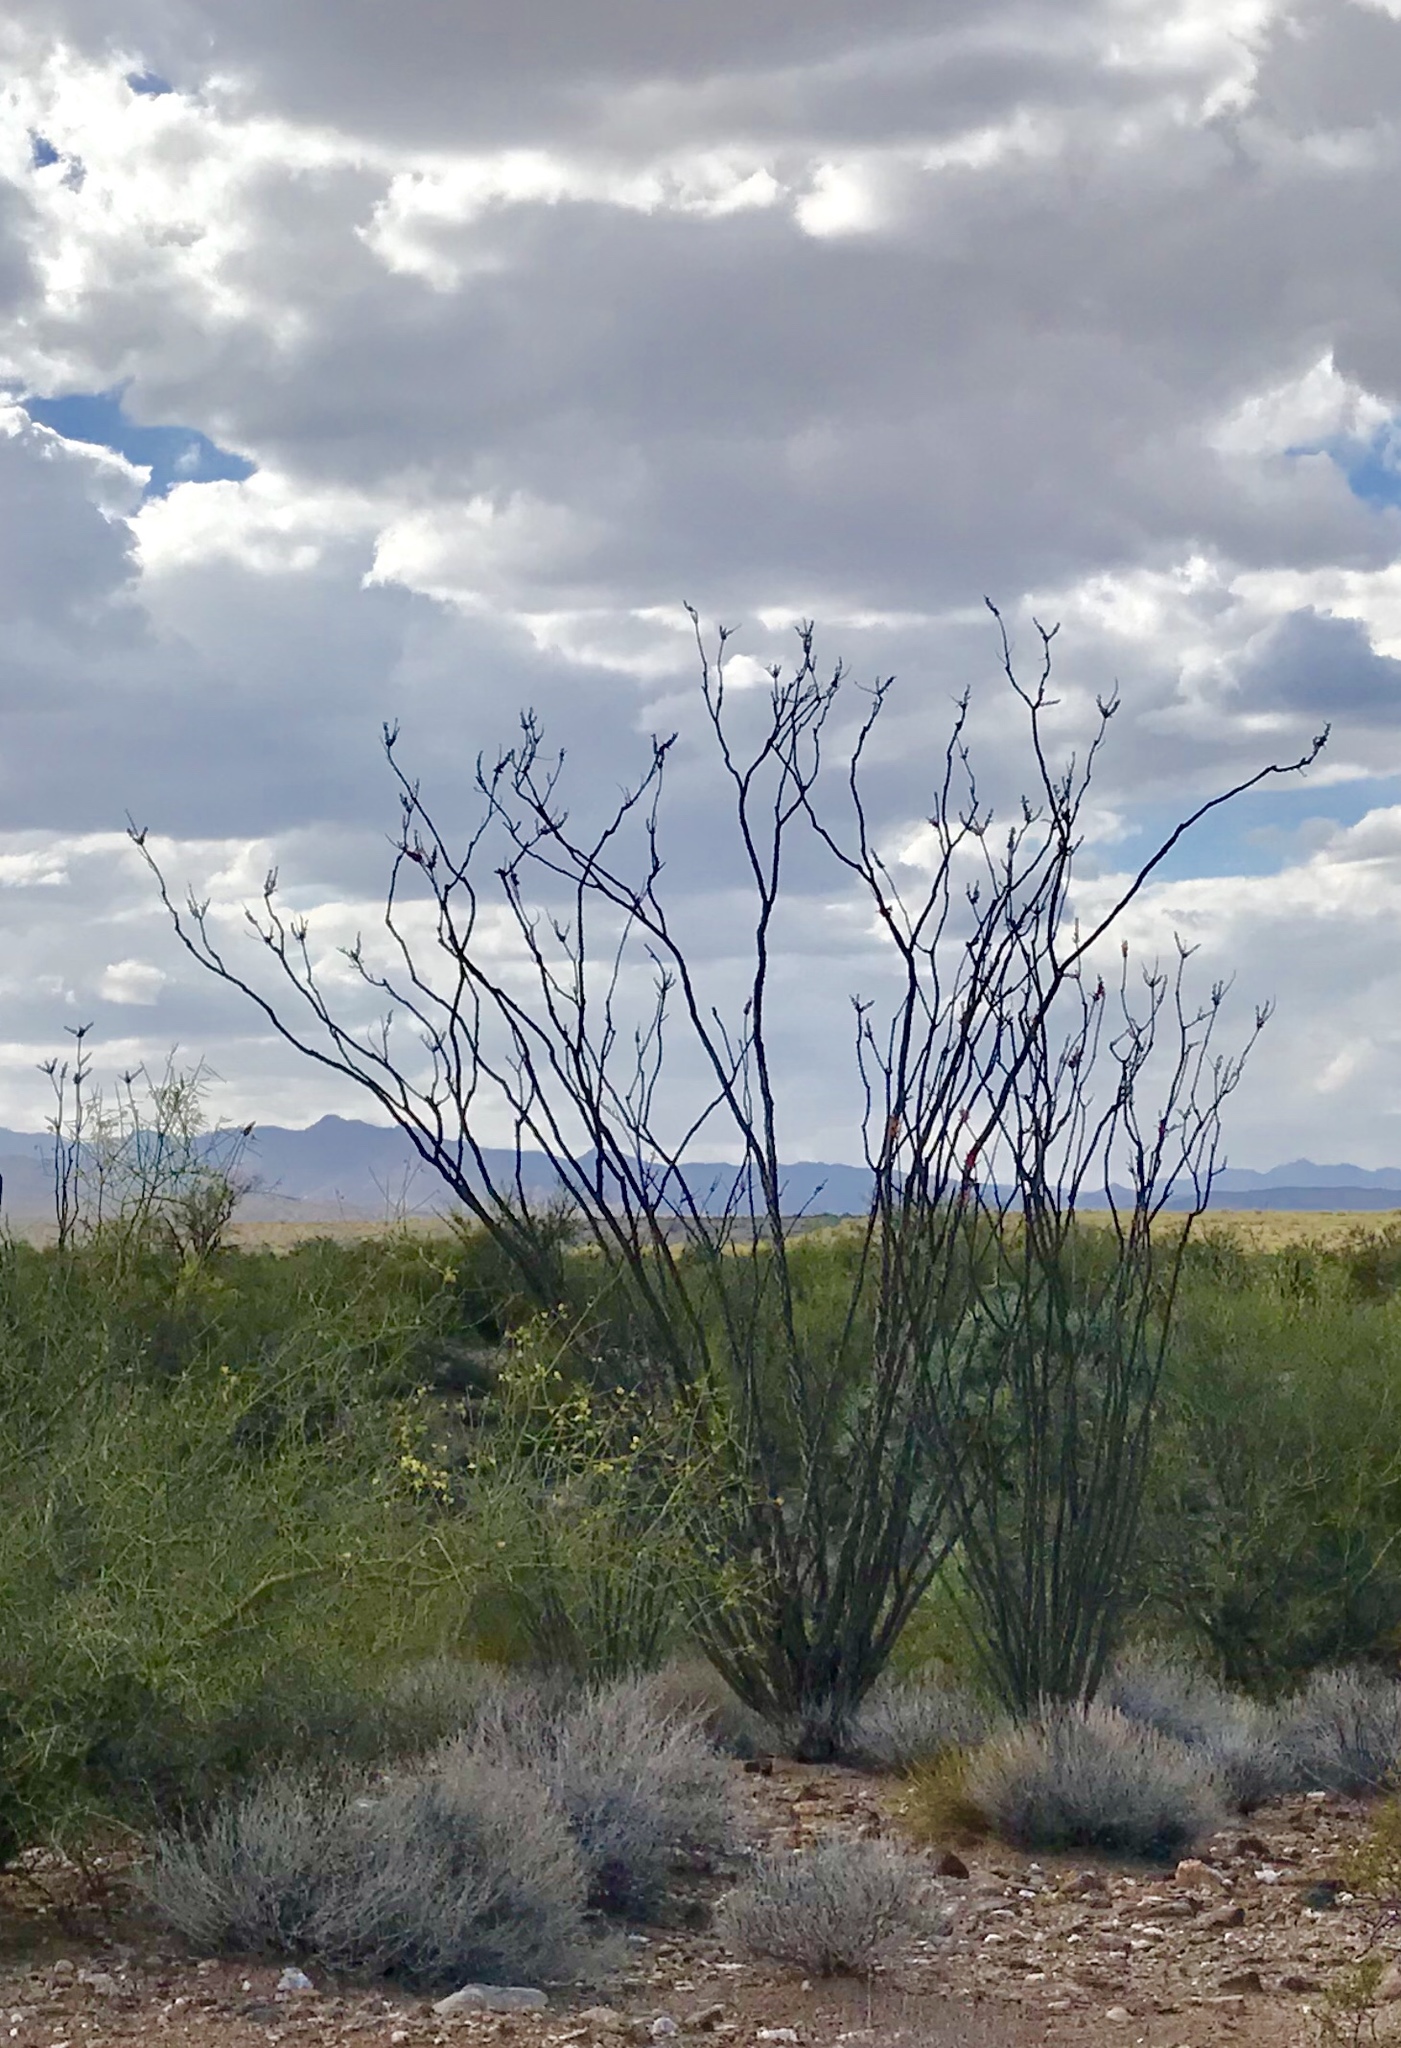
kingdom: Plantae
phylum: Tracheophyta
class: Magnoliopsida
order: Ericales
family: Fouquieriaceae
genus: Fouquieria
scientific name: Fouquieria splendens
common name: Vine-cactus
